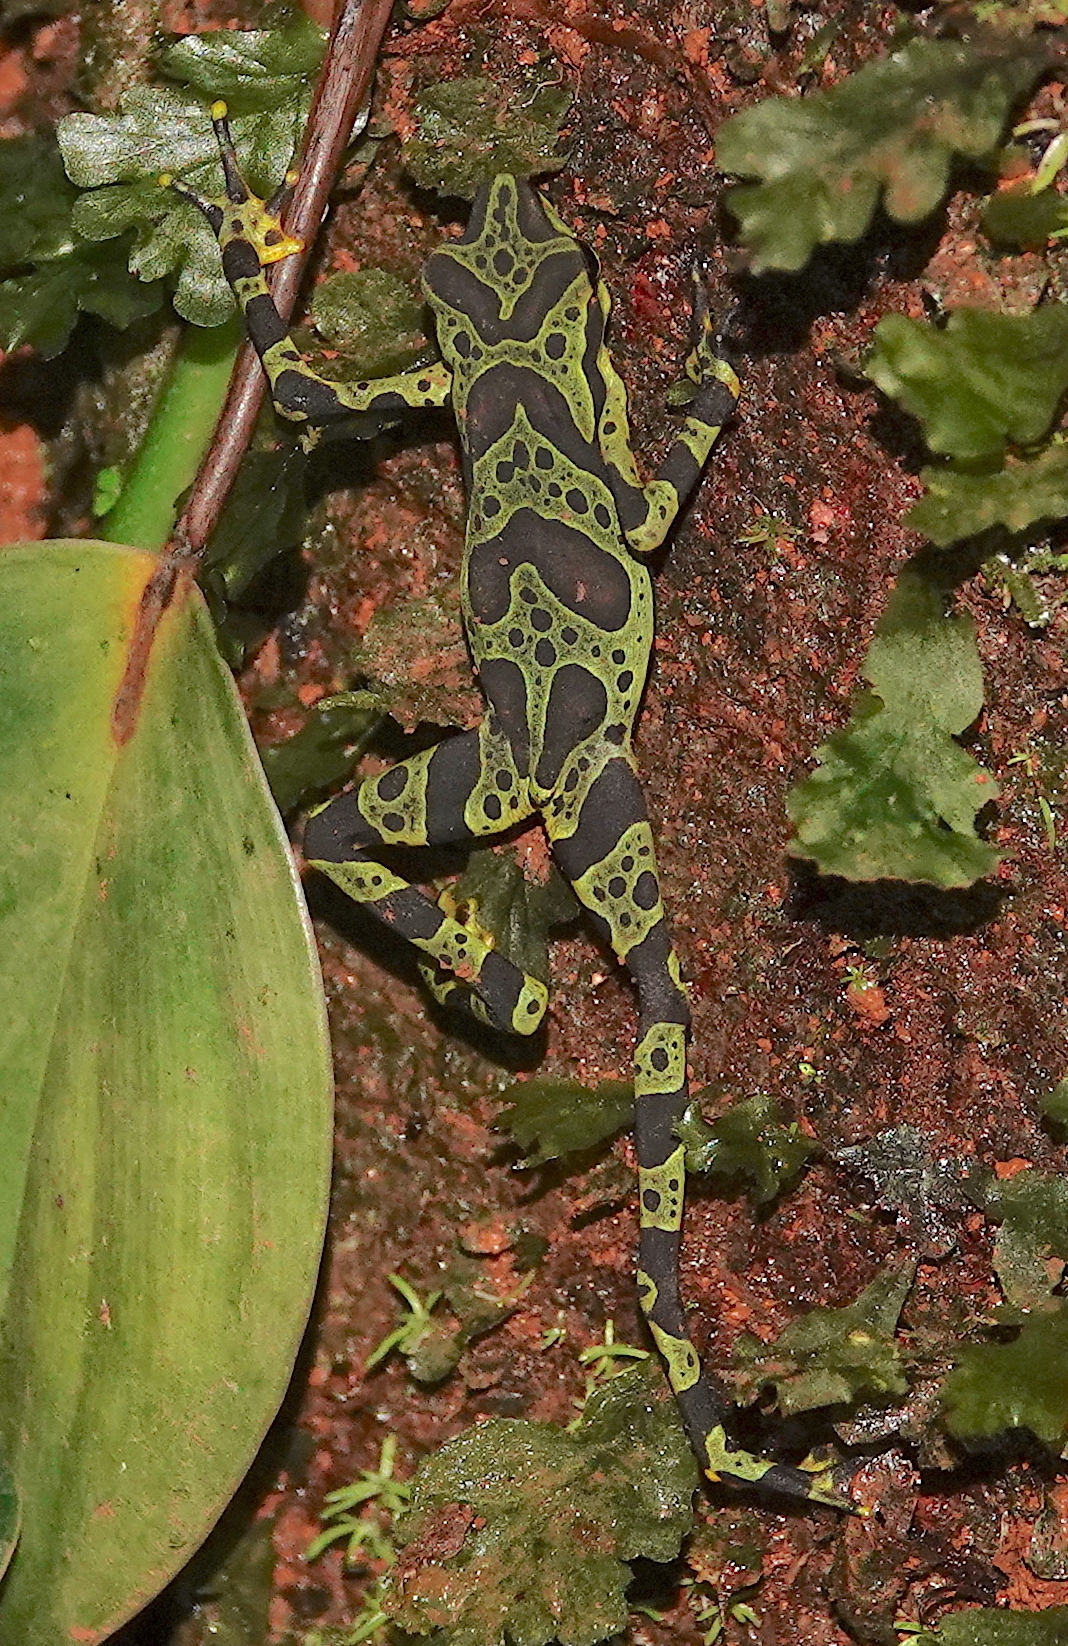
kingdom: Animalia
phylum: Chordata
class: Amphibia
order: Anura
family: Bufonidae
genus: Atelopus
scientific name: Atelopus spurrelli
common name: Condoto stubfoot toad
